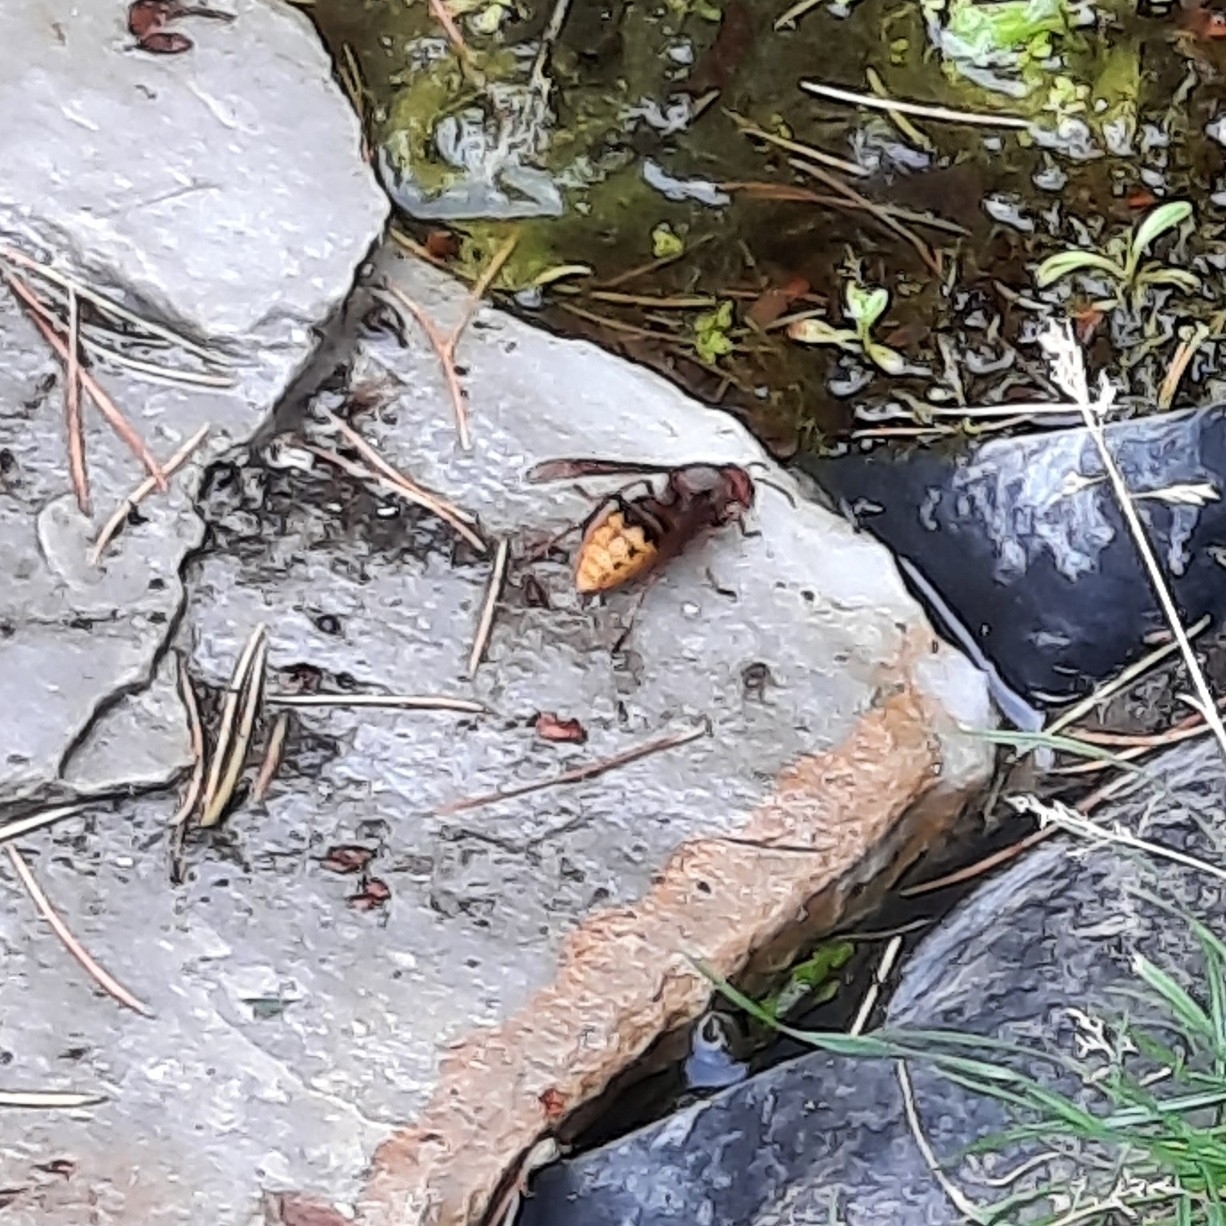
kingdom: Animalia
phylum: Arthropoda
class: Insecta
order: Hymenoptera
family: Vespidae
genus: Vespa
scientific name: Vespa crabro
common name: Hornet
